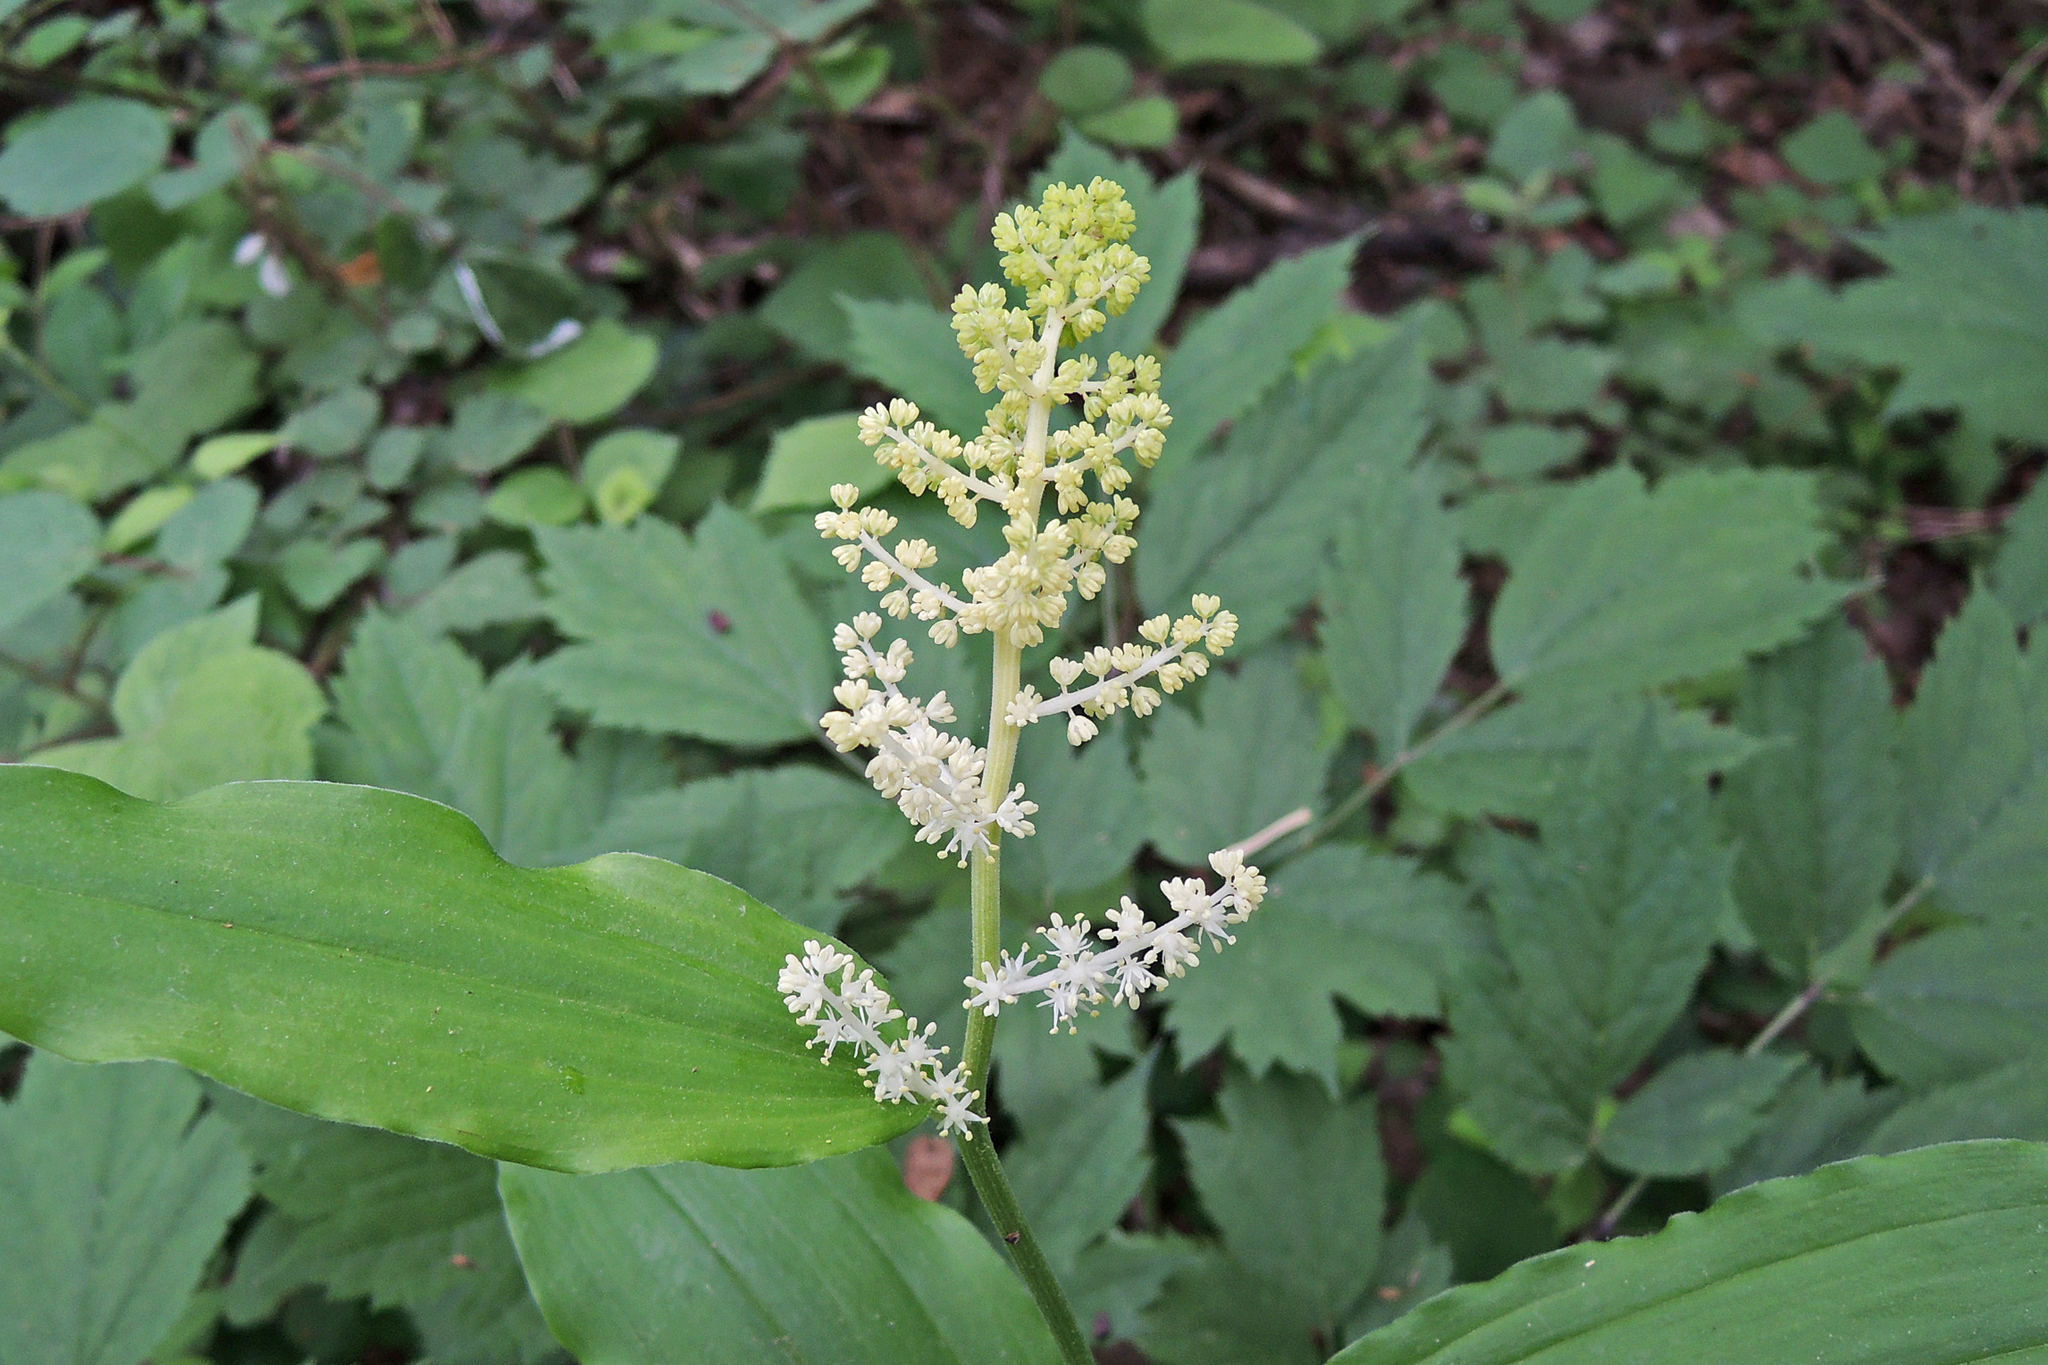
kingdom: Plantae
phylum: Tracheophyta
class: Liliopsida
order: Asparagales
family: Asparagaceae
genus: Maianthemum
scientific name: Maianthemum racemosum
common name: False spikenard
